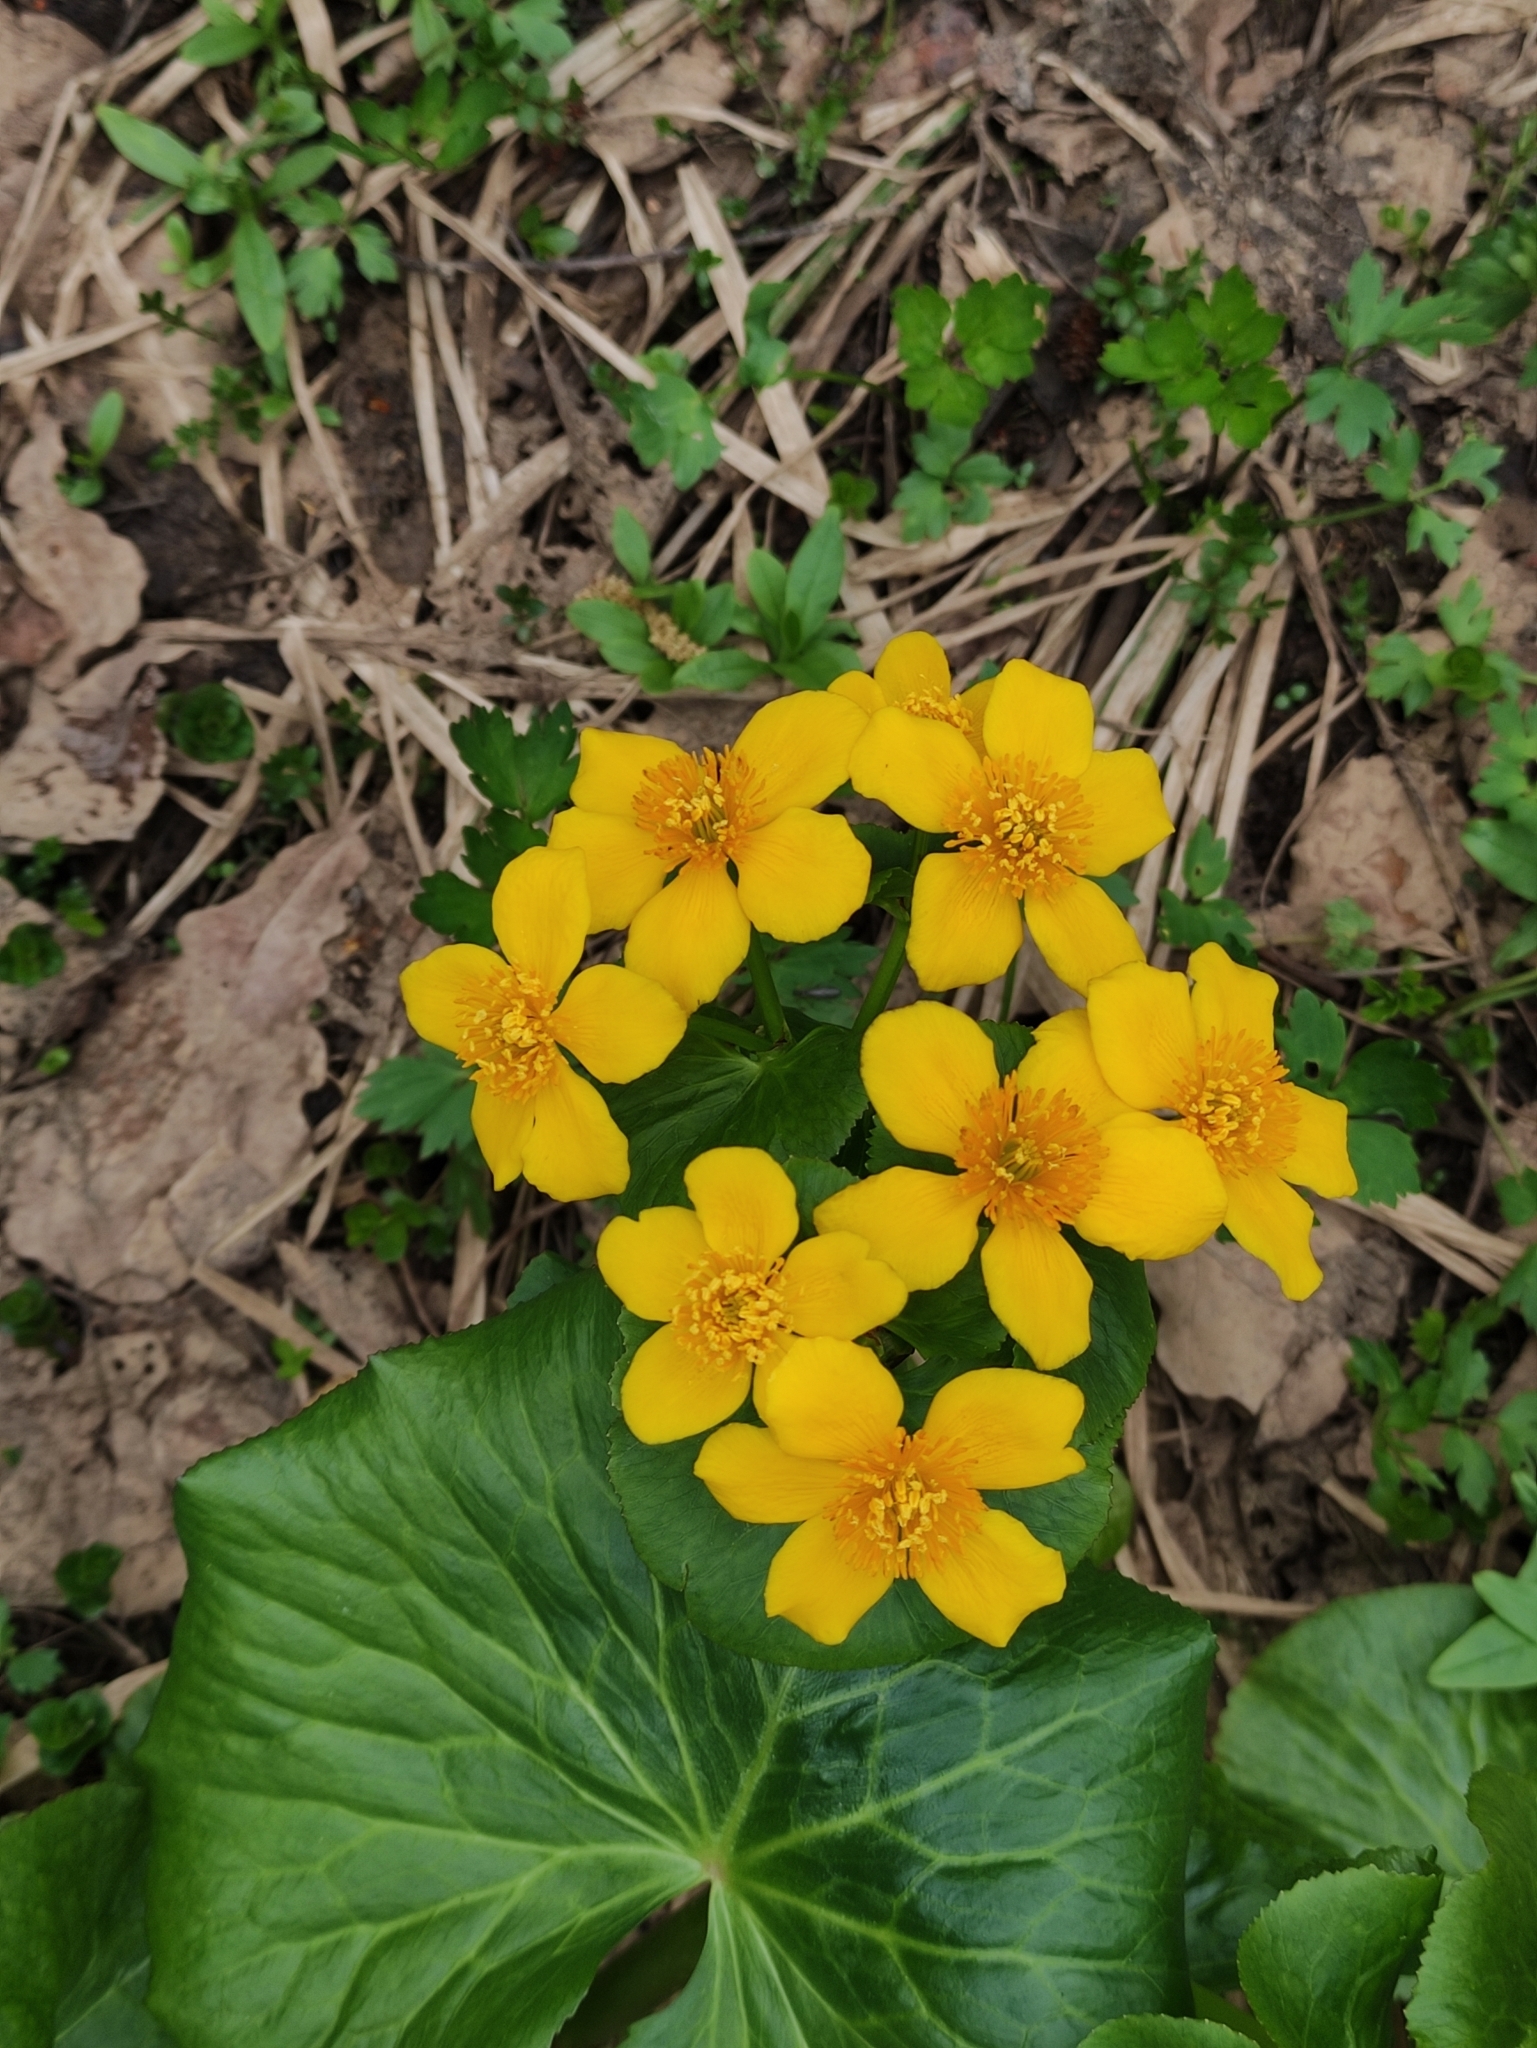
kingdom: Plantae
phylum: Tracheophyta
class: Magnoliopsida
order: Ranunculales
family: Ranunculaceae
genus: Caltha
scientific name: Caltha palustris
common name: Marsh marigold
